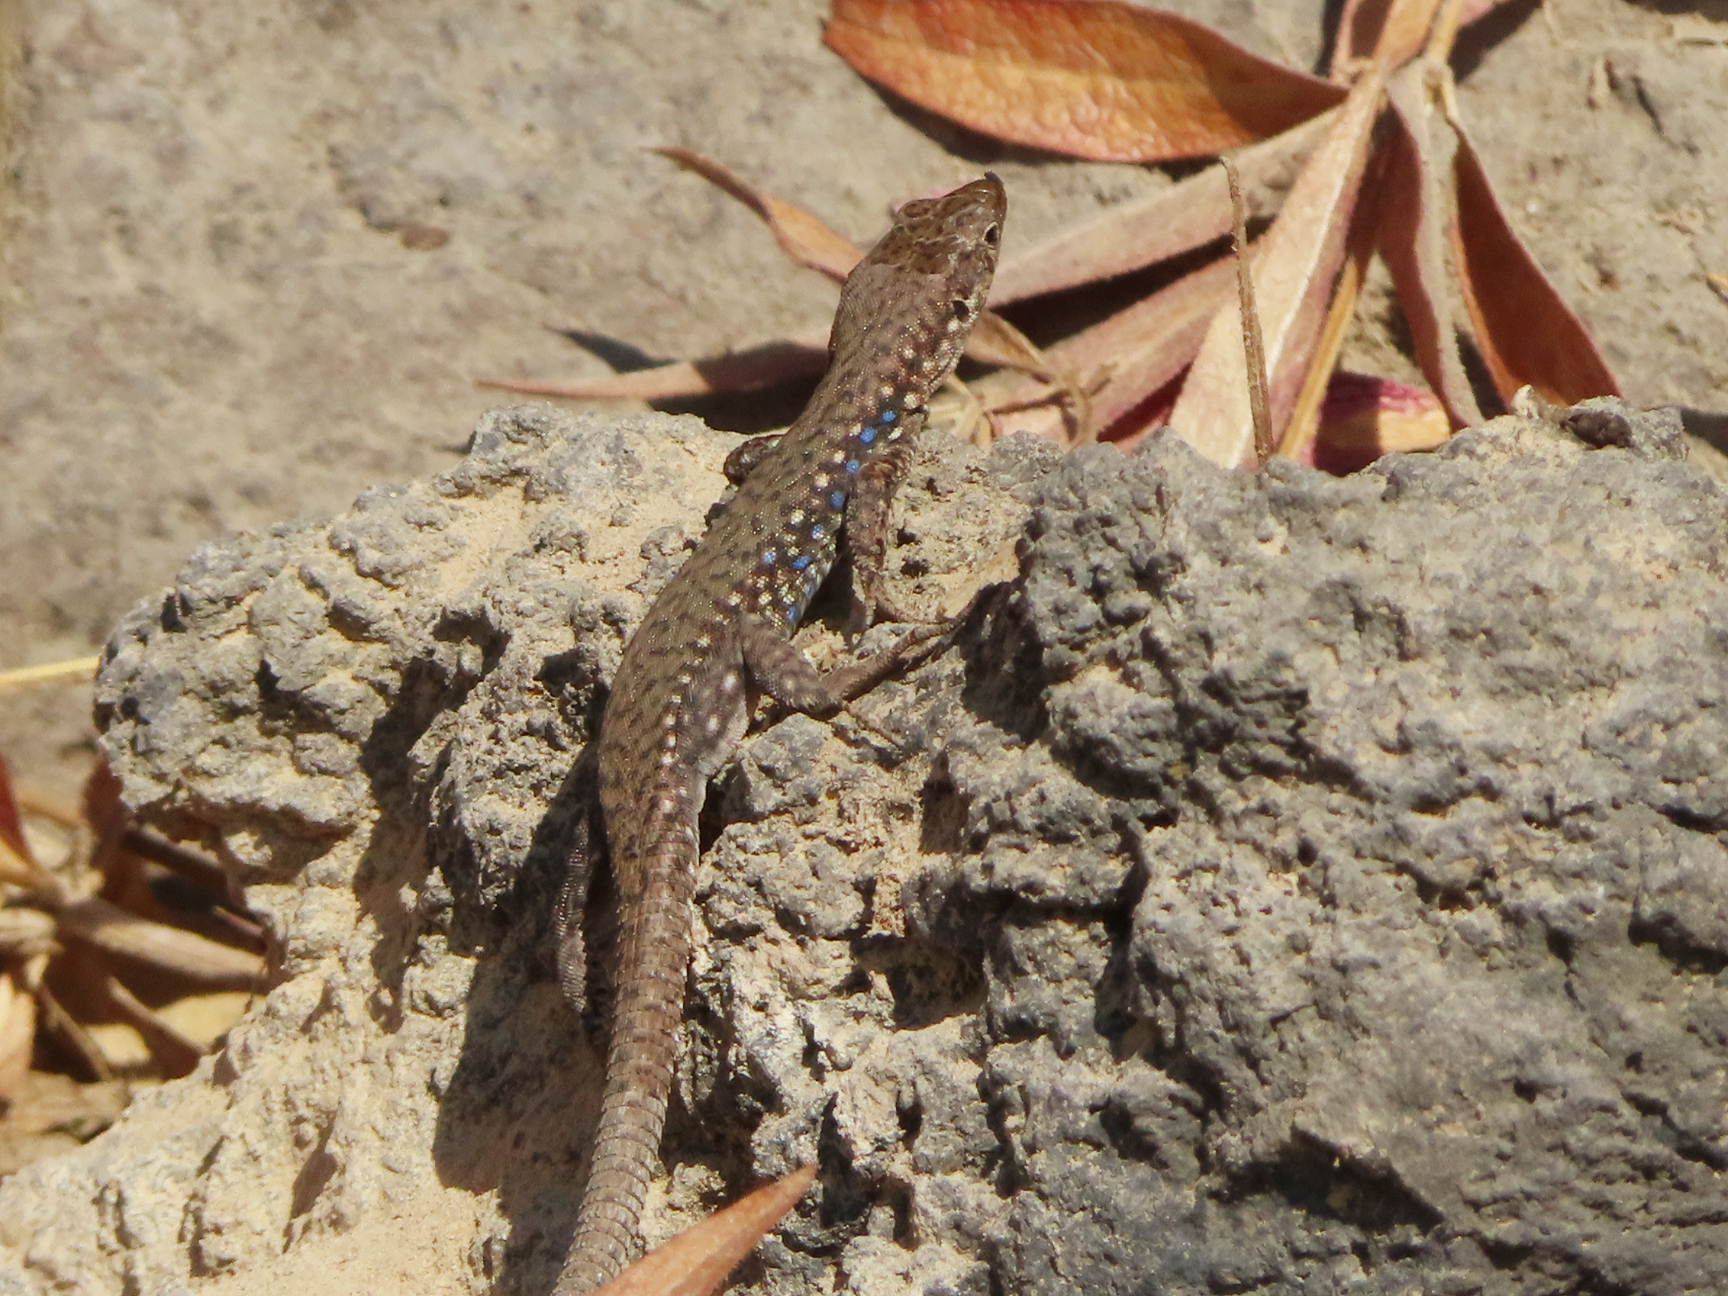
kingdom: Animalia
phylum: Chordata
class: Squamata
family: Lacertidae
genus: Darevskia
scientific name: Darevskia
